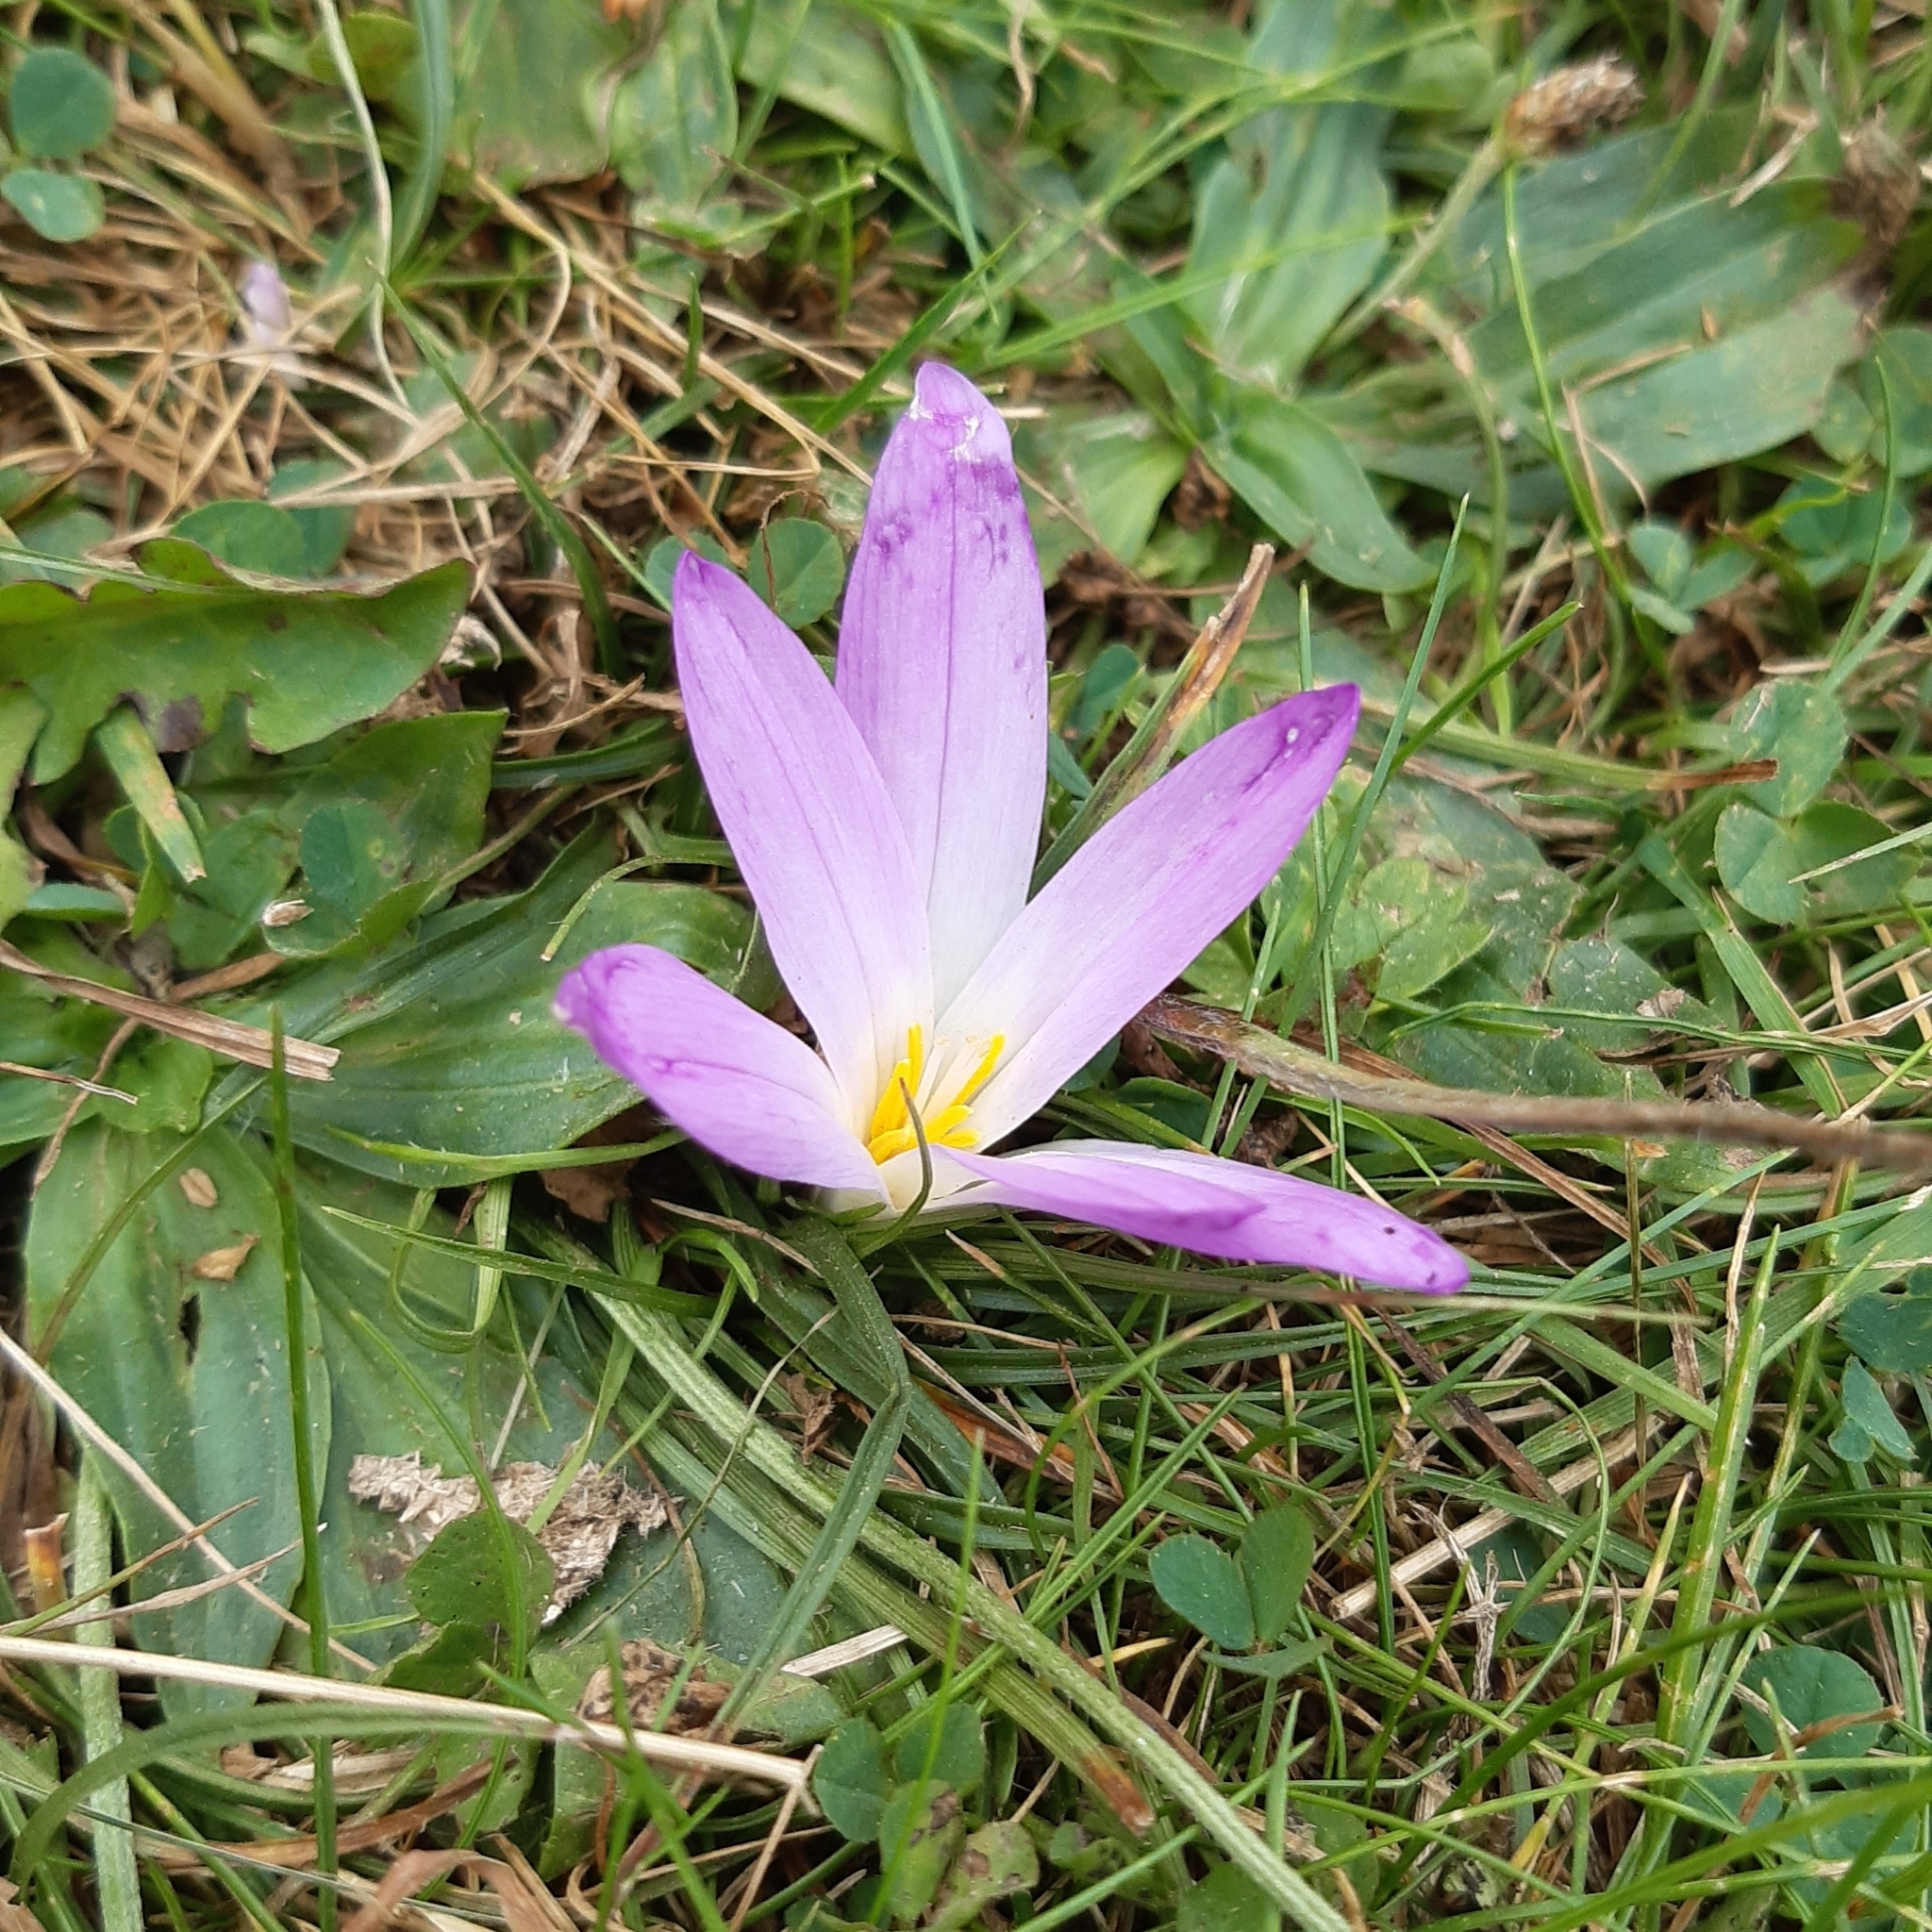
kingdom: Plantae
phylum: Tracheophyta
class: Liliopsida
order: Liliales
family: Colchicaceae
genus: Colchicum
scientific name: Colchicum montanum
